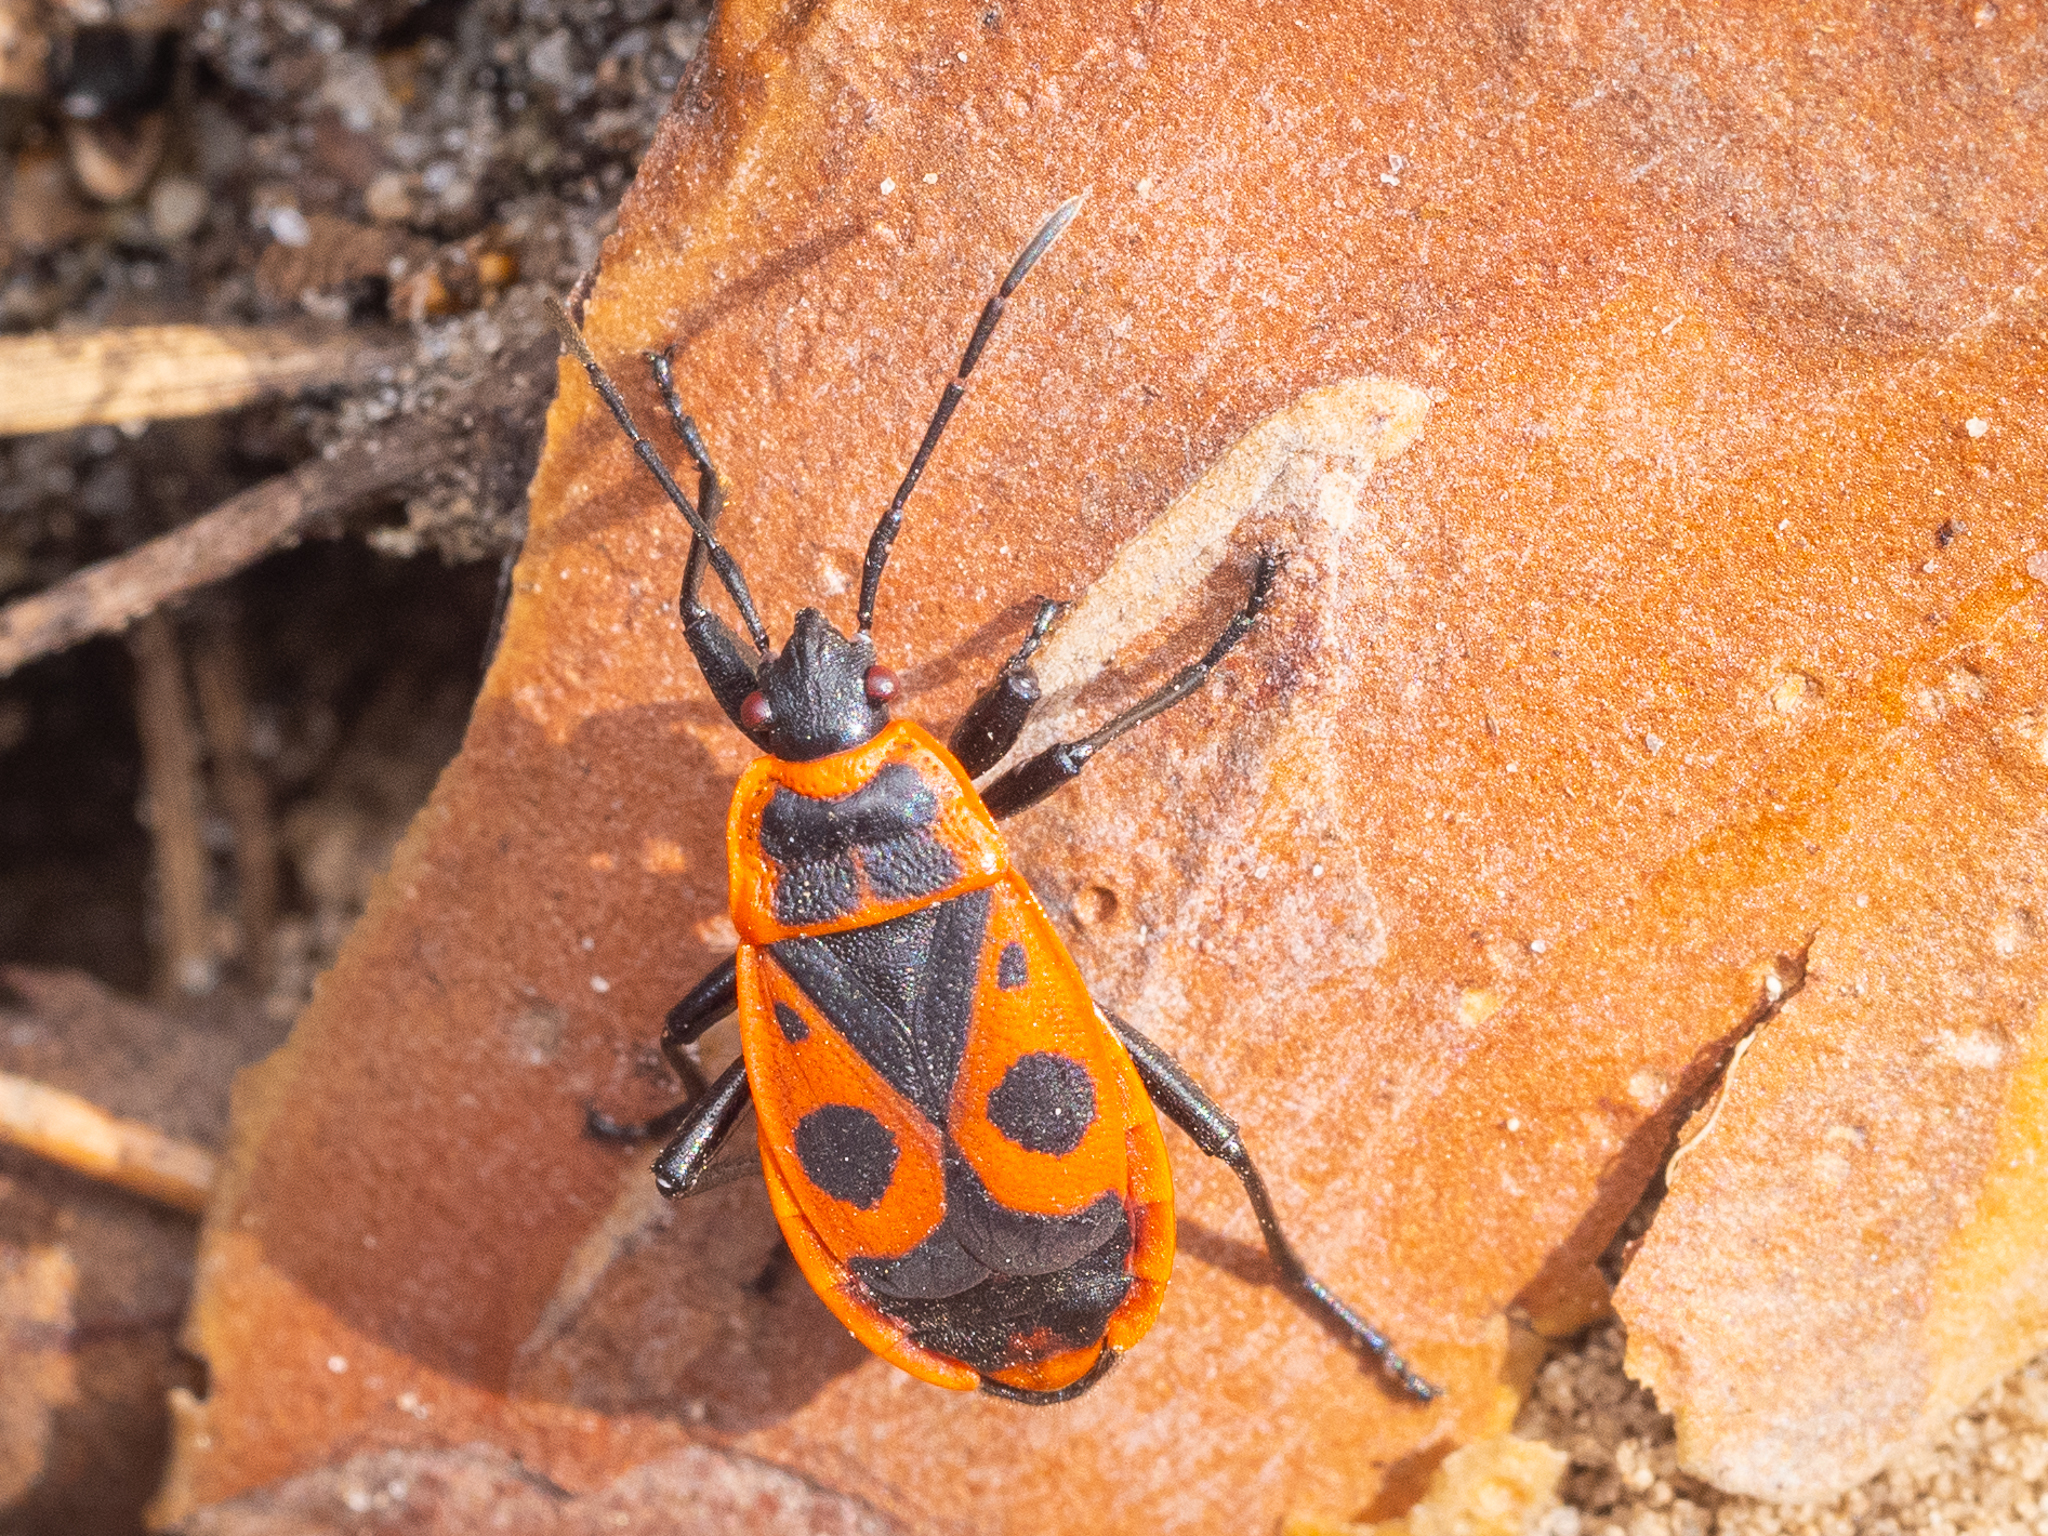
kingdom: Animalia
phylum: Arthropoda
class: Insecta
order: Hemiptera
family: Pyrrhocoridae
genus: Pyrrhocoris
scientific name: Pyrrhocoris apterus
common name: Firebug
